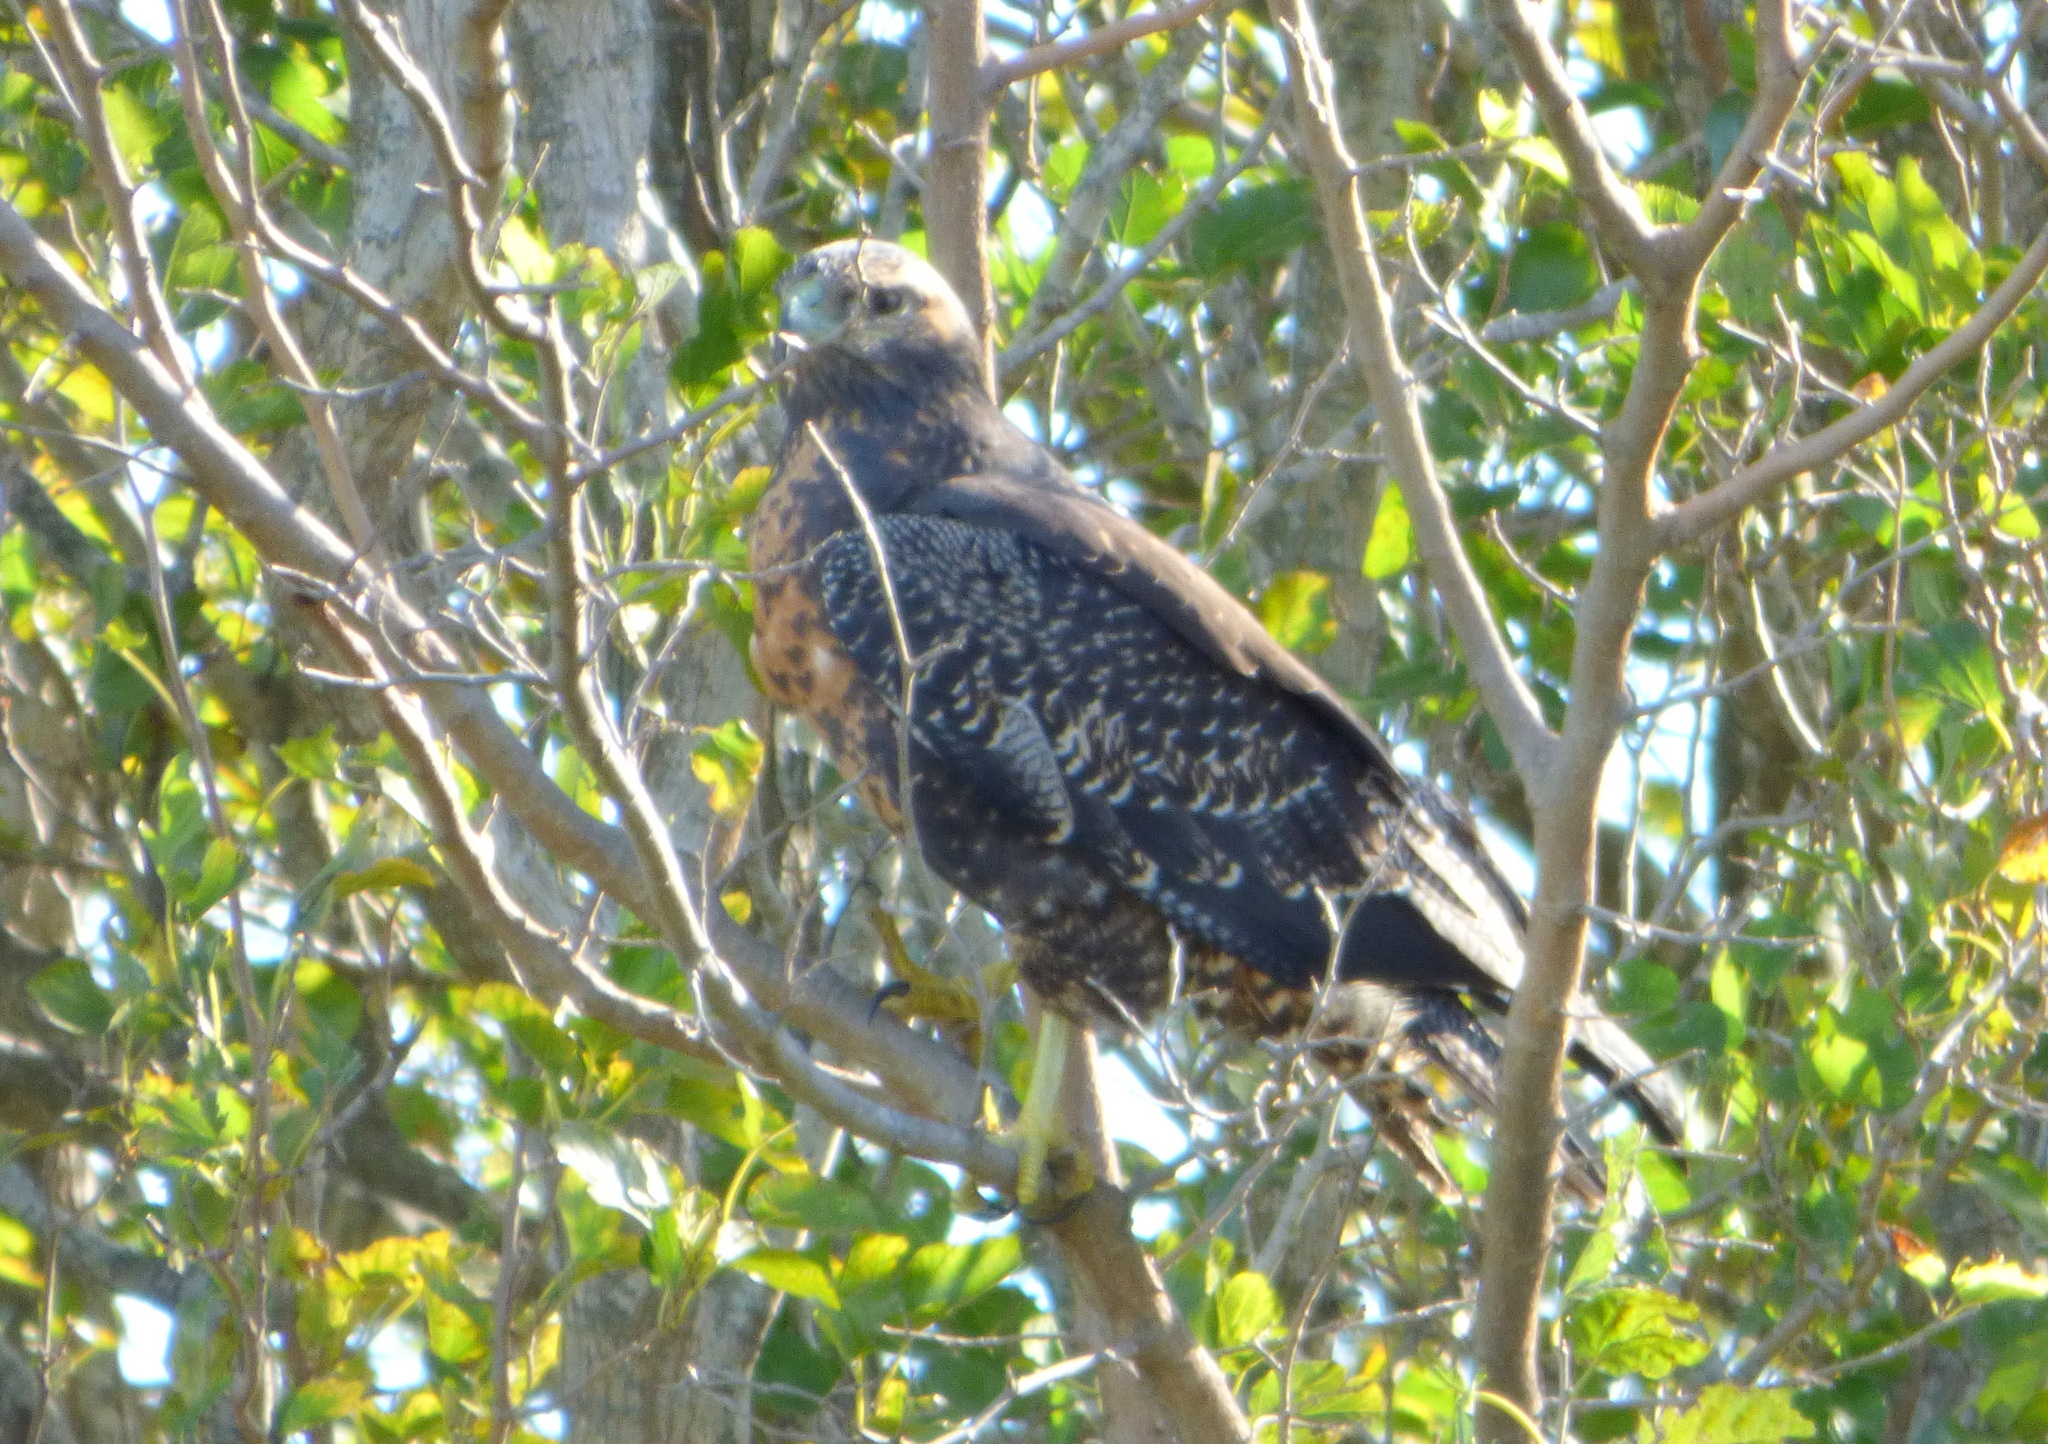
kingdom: Animalia
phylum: Chordata
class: Aves
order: Accipitriformes
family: Accipitridae
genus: Geranoaetus
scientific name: Geranoaetus melanoleucus
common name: Black-chested buzzard-eagle
